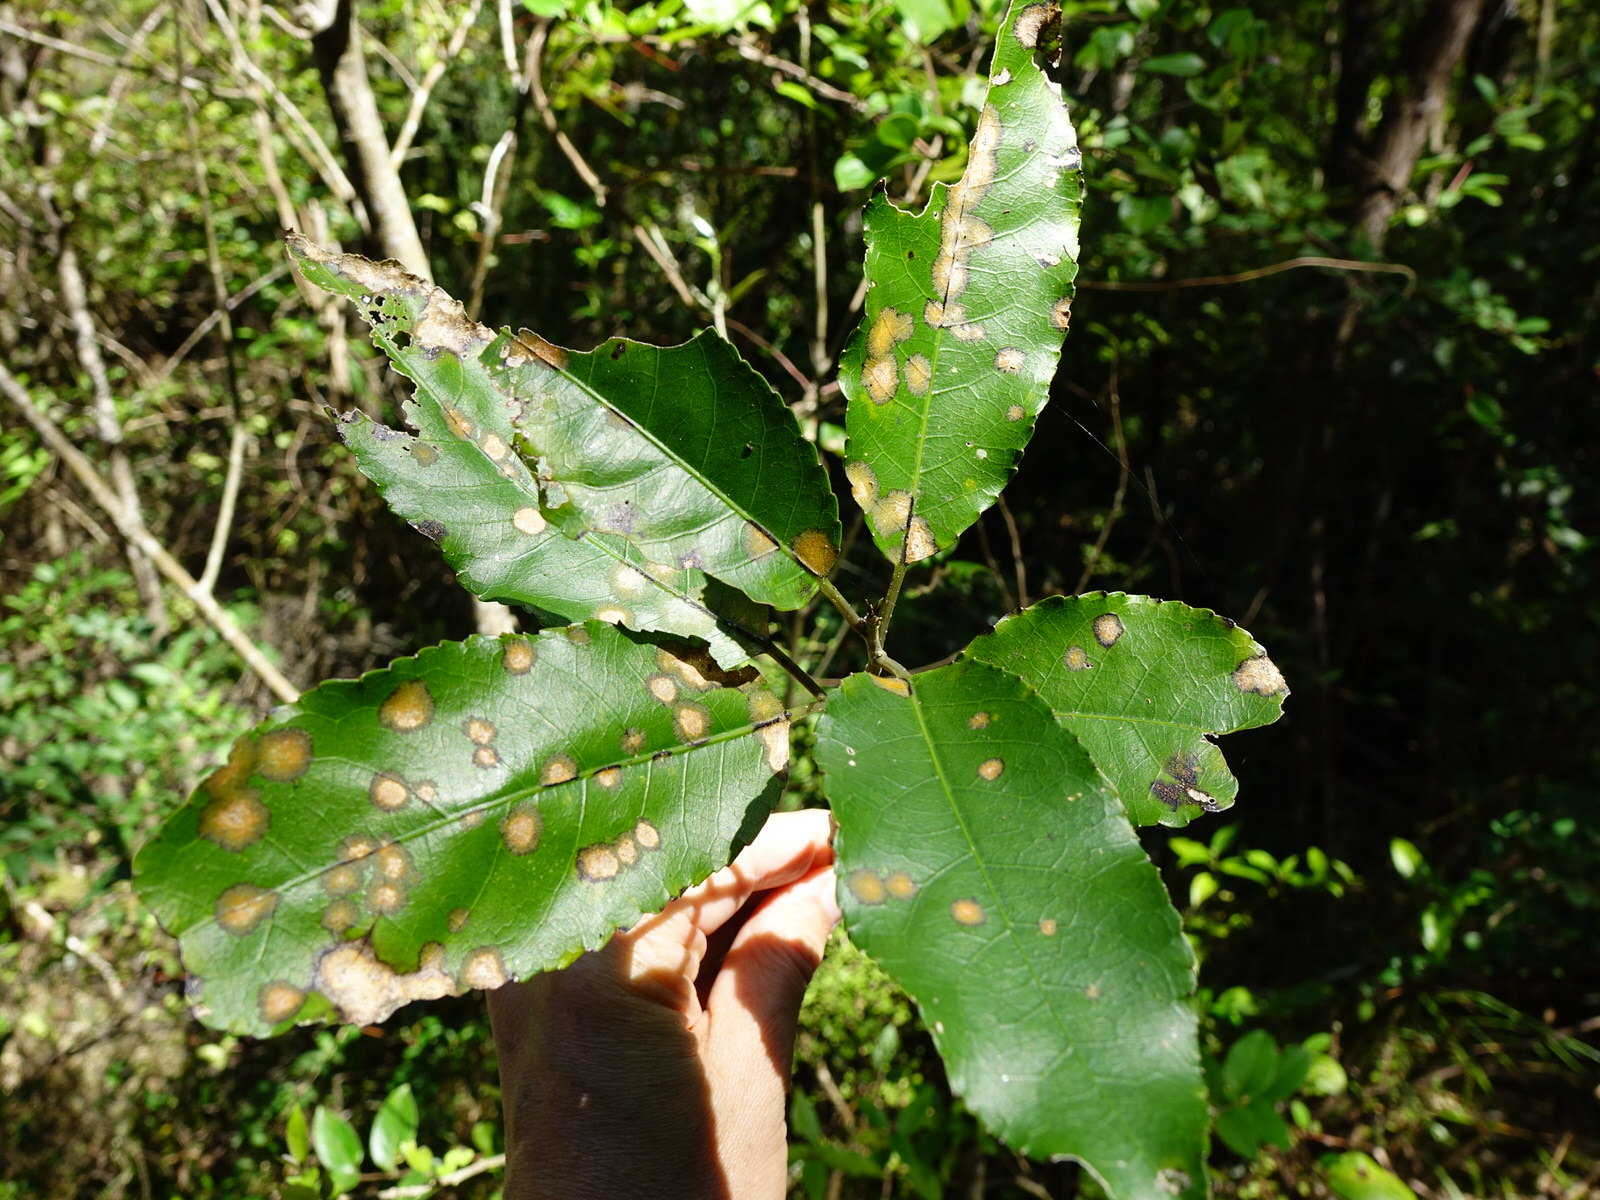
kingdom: Plantae
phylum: Chlorophyta
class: Ulvophyceae
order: Trentepohliales
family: Trentepohliaceae
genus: Cephaleuros
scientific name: Cephaleuros
